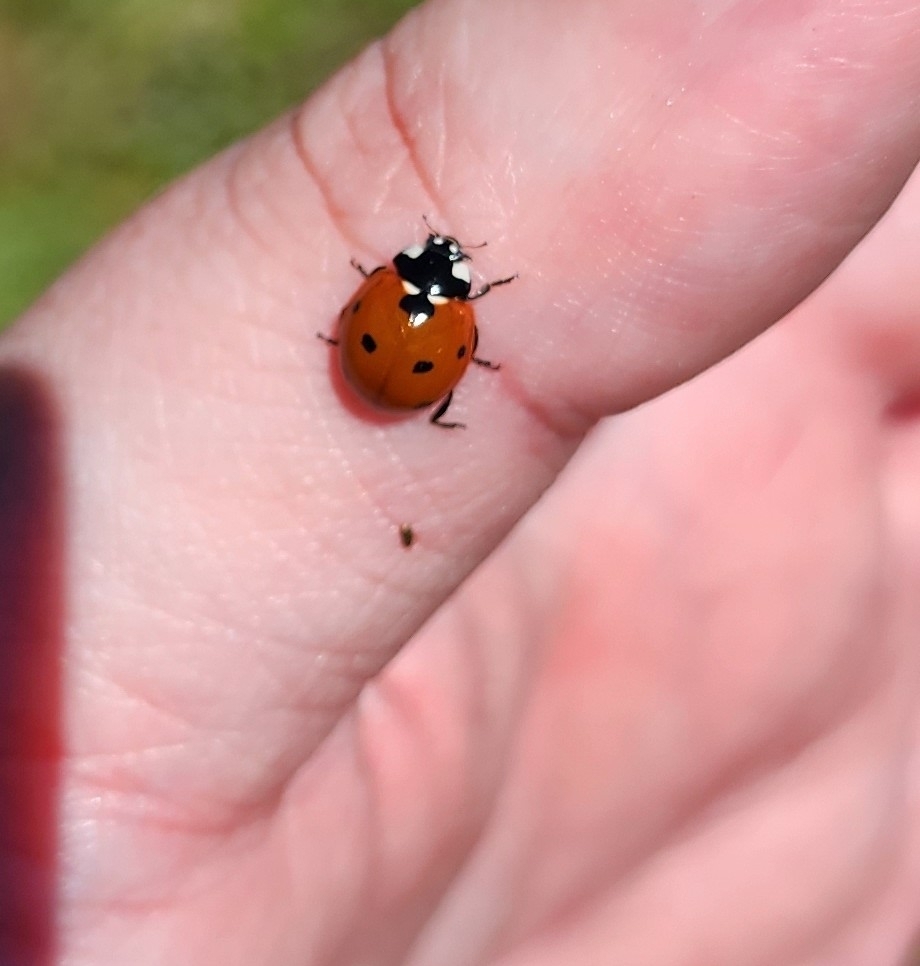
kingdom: Animalia
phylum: Arthropoda
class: Insecta
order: Coleoptera
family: Coccinellidae
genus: Coccinella
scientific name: Coccinella septempunctata
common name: Sevenspotted lady beetle
